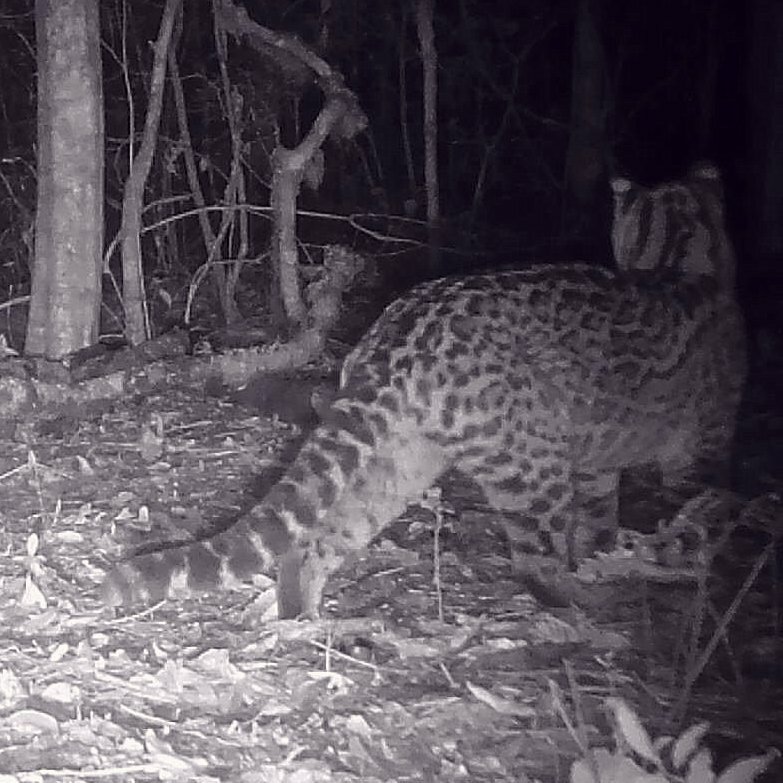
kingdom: Animalia
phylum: Chordata
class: Mammalia
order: Carnivora
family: Felidae
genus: Leopardus
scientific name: Leopardus pardalis
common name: Ocelot
